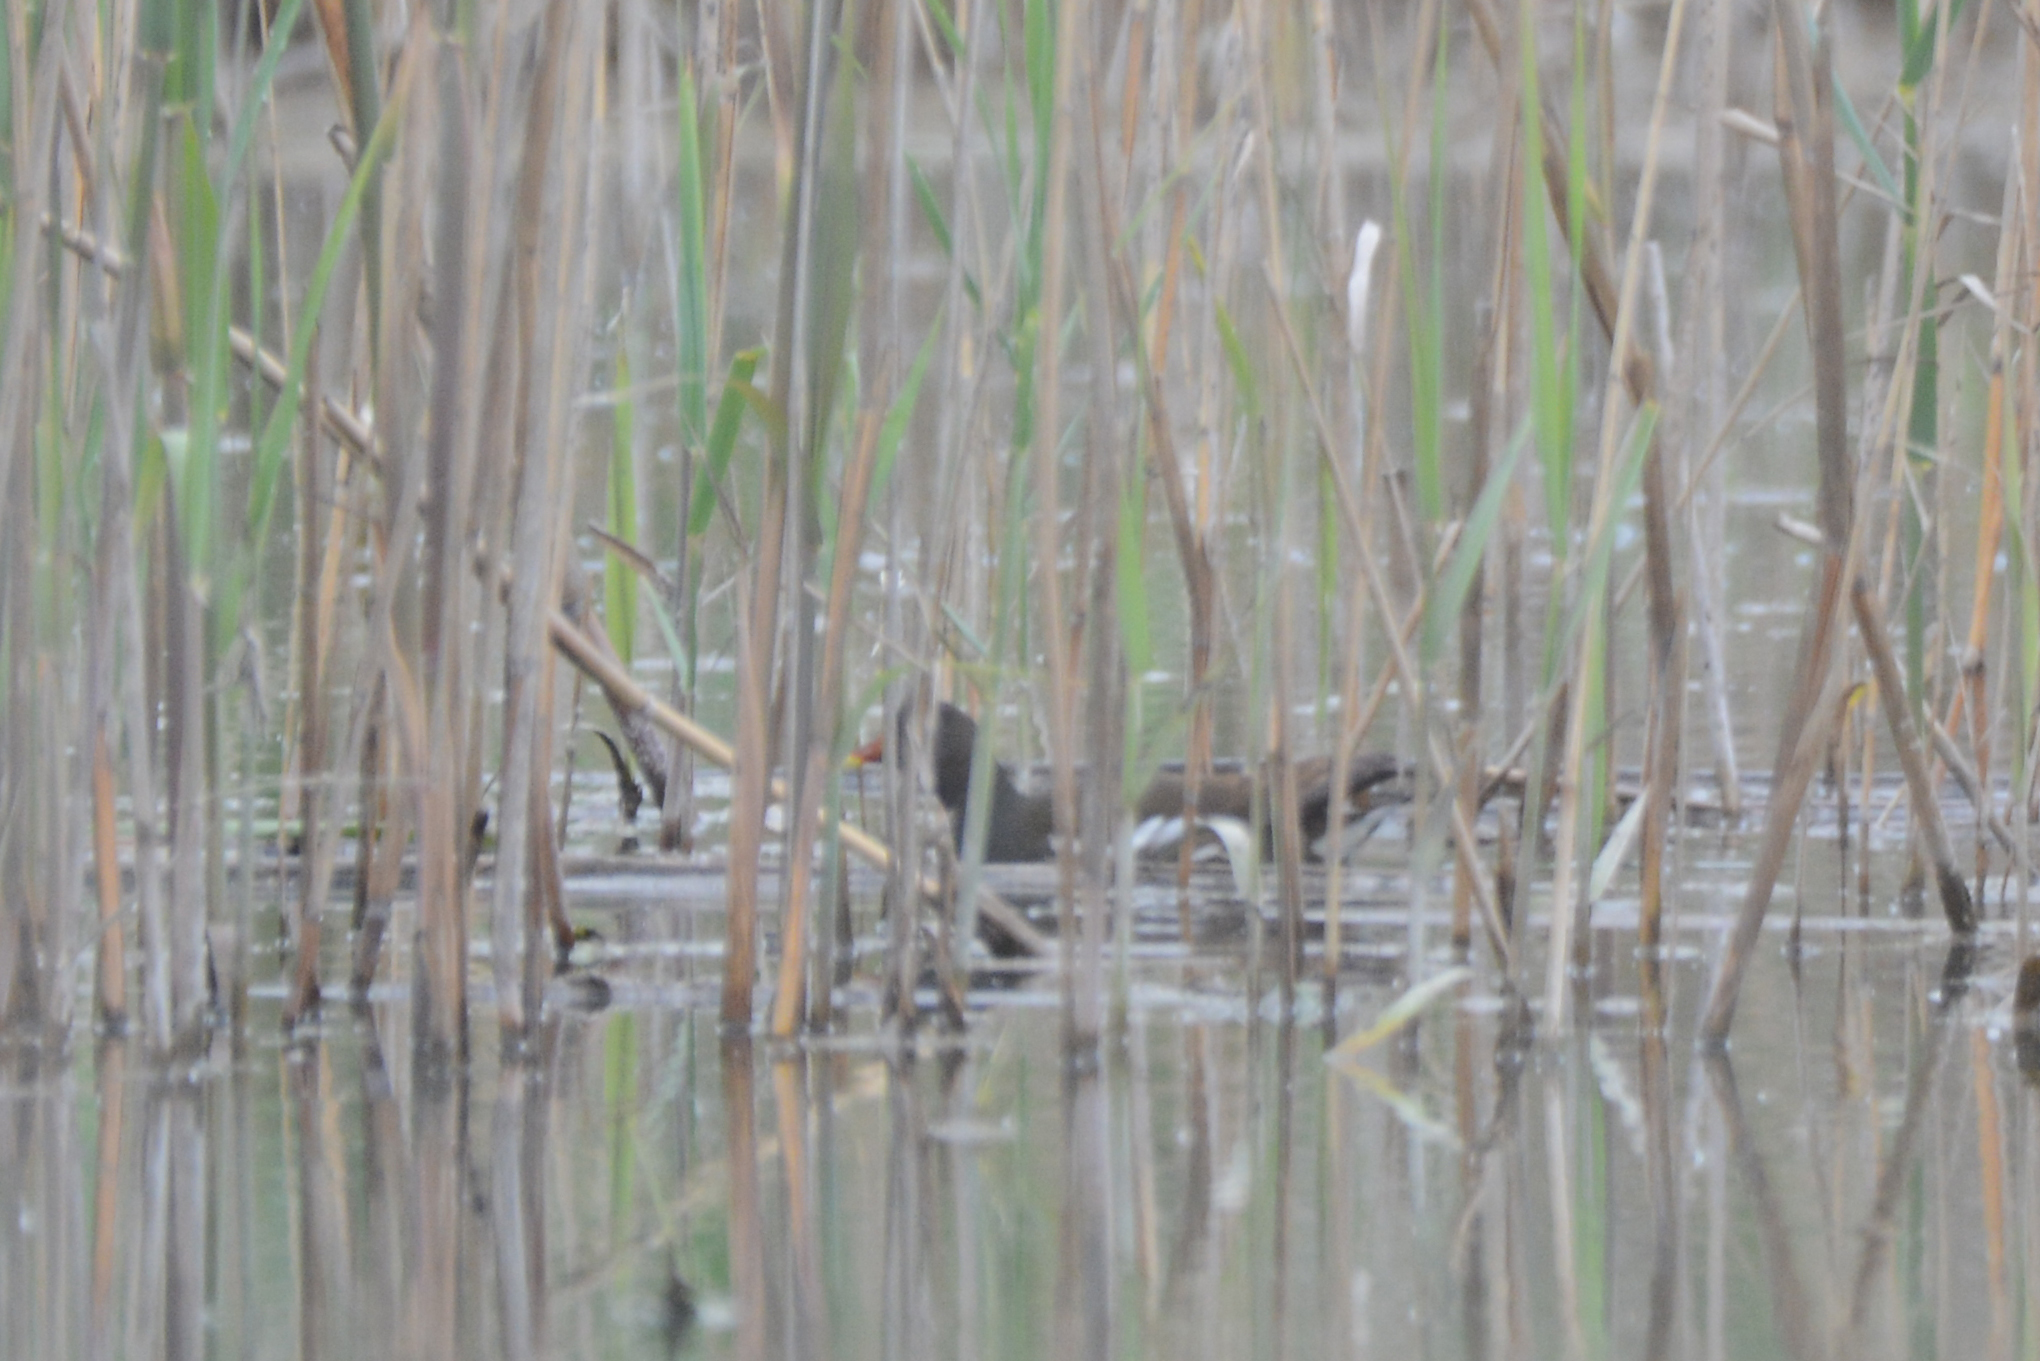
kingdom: Animalia
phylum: Chordata
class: Aves
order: Gruiformes
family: Rallidae
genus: Gallinula
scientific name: Gallinula chloropus
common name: Common moorhen
